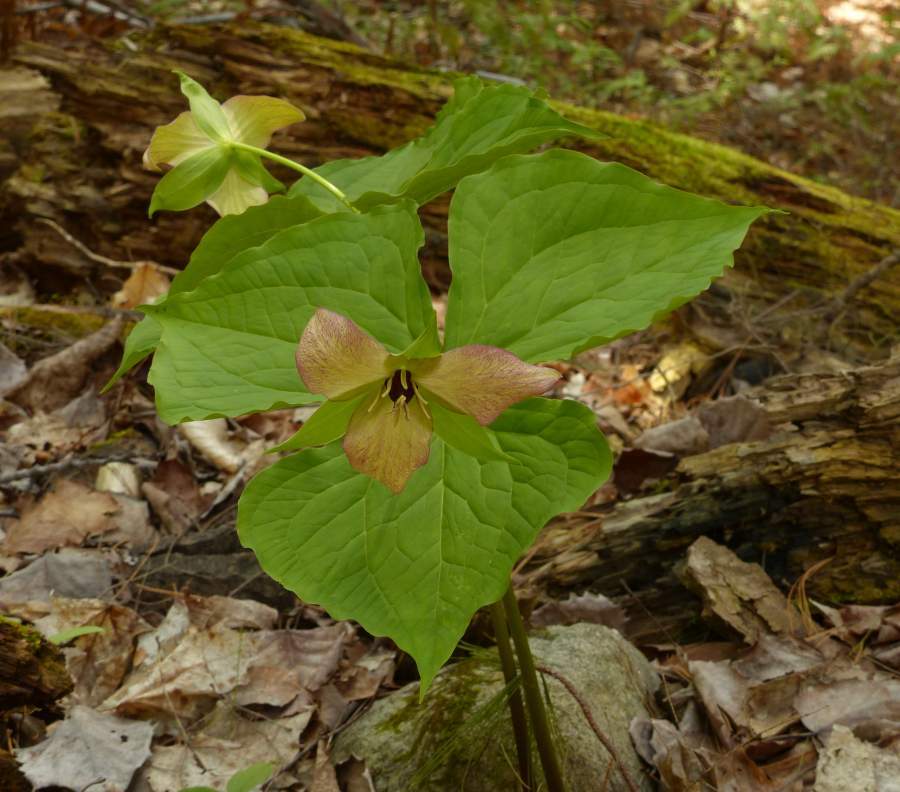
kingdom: Plantae
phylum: Tracheophyta
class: Liliopsida
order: Liliales
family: Melanthiaceae
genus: Trillium
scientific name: Trillium erectum
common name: Purple trillium
